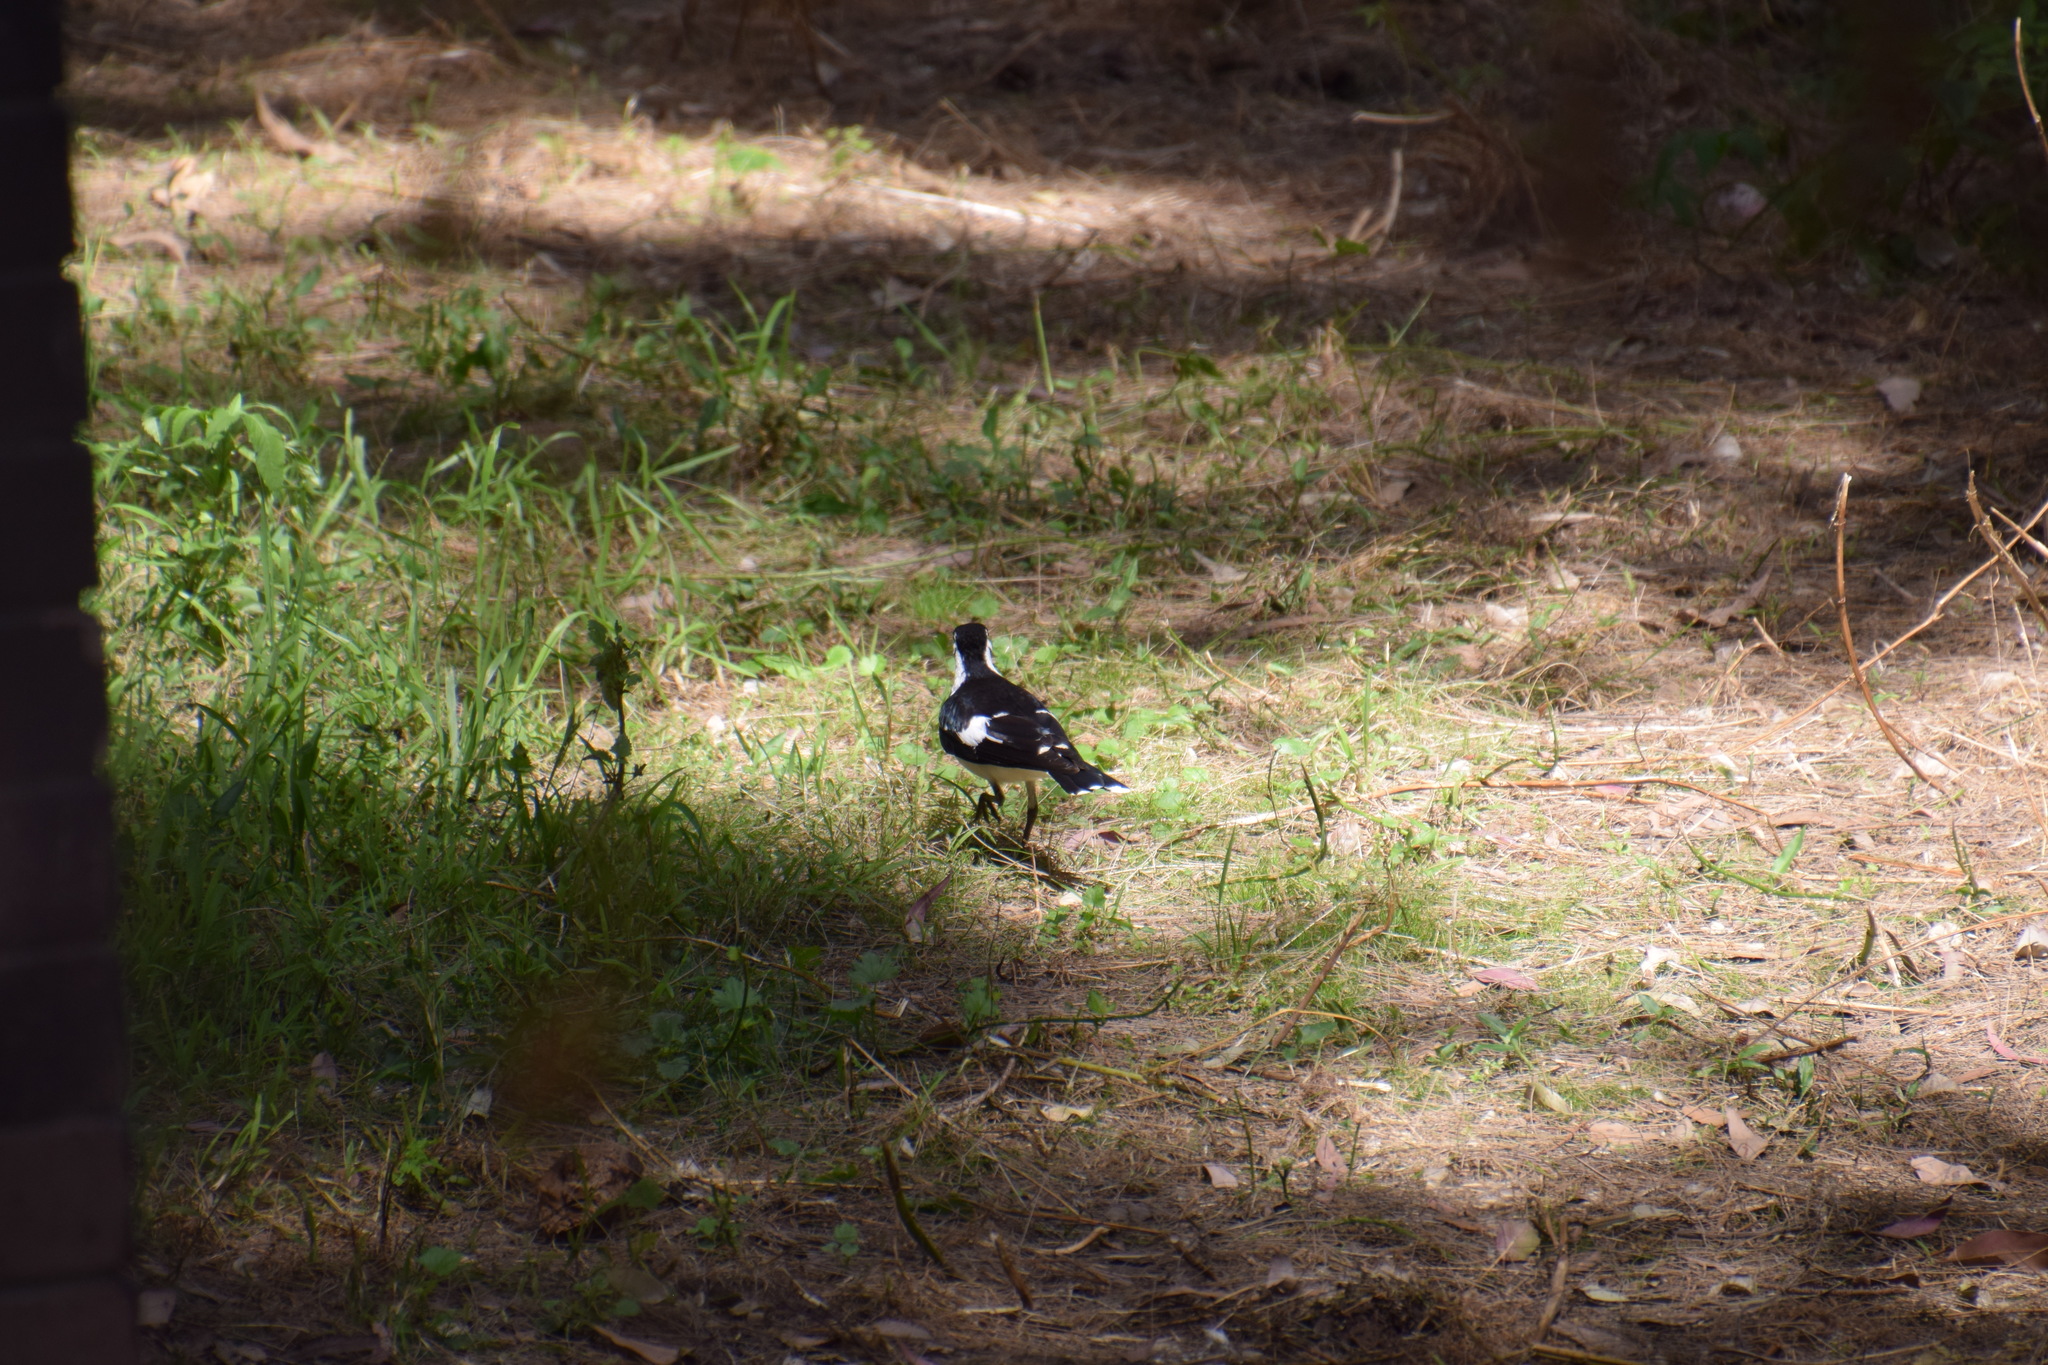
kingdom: Animalia
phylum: Chordata
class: Aves
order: Passeriformes
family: Monarchidae
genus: Grallina
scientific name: Grallina cyanoleuca
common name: Magpie-lark
